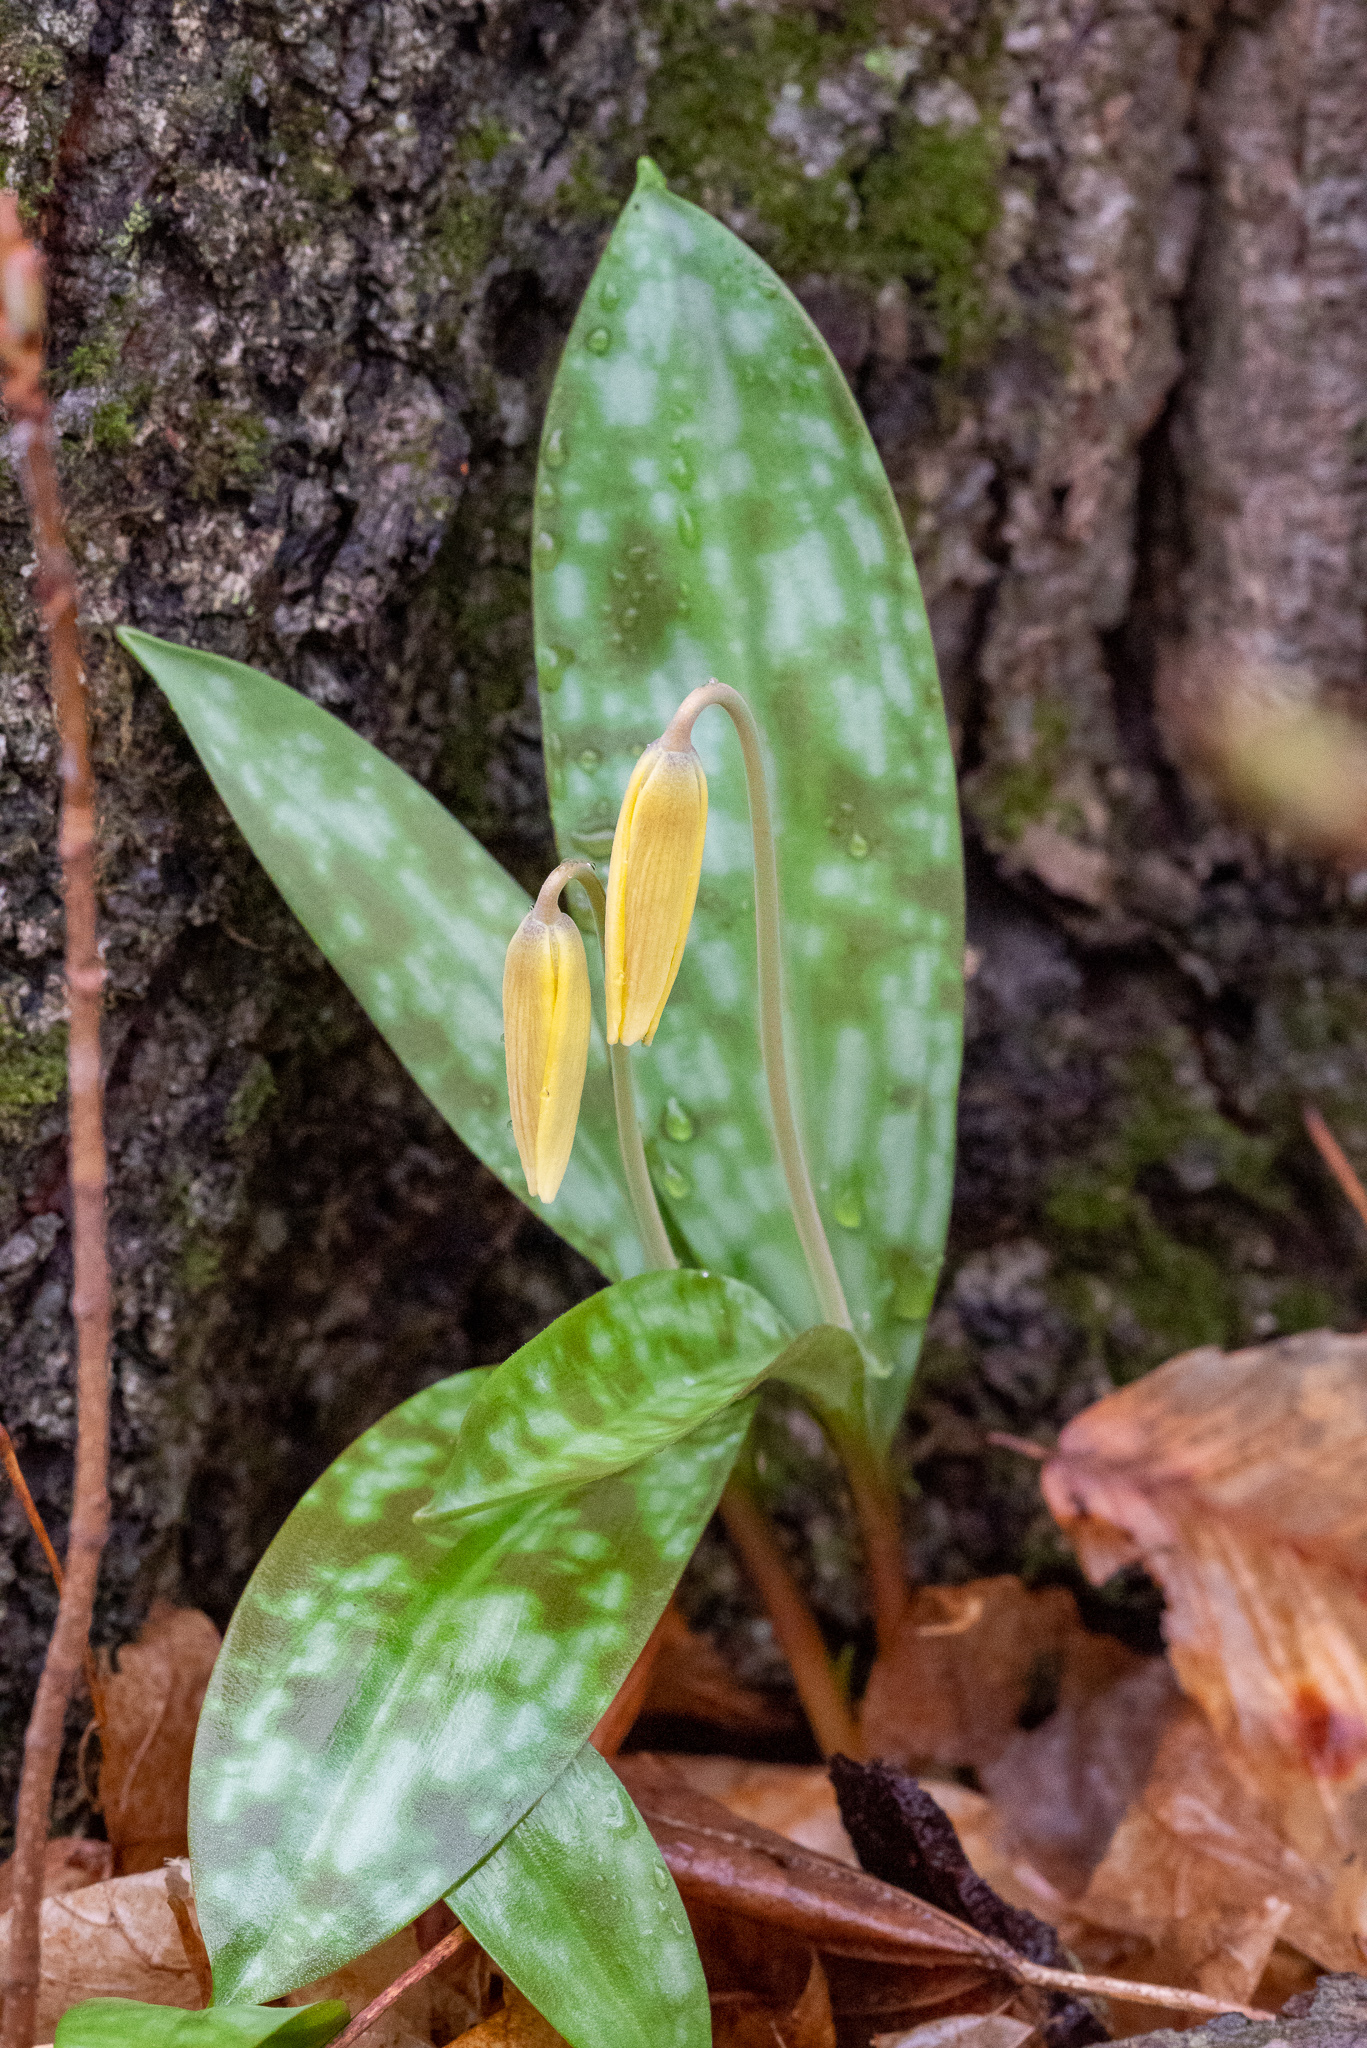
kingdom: Plantae
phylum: Tracheophyta
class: Liliopsida
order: Liliales
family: Liliaceae
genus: Erythronium
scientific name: Erythronium americanum
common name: Yellow adder's-tongue
